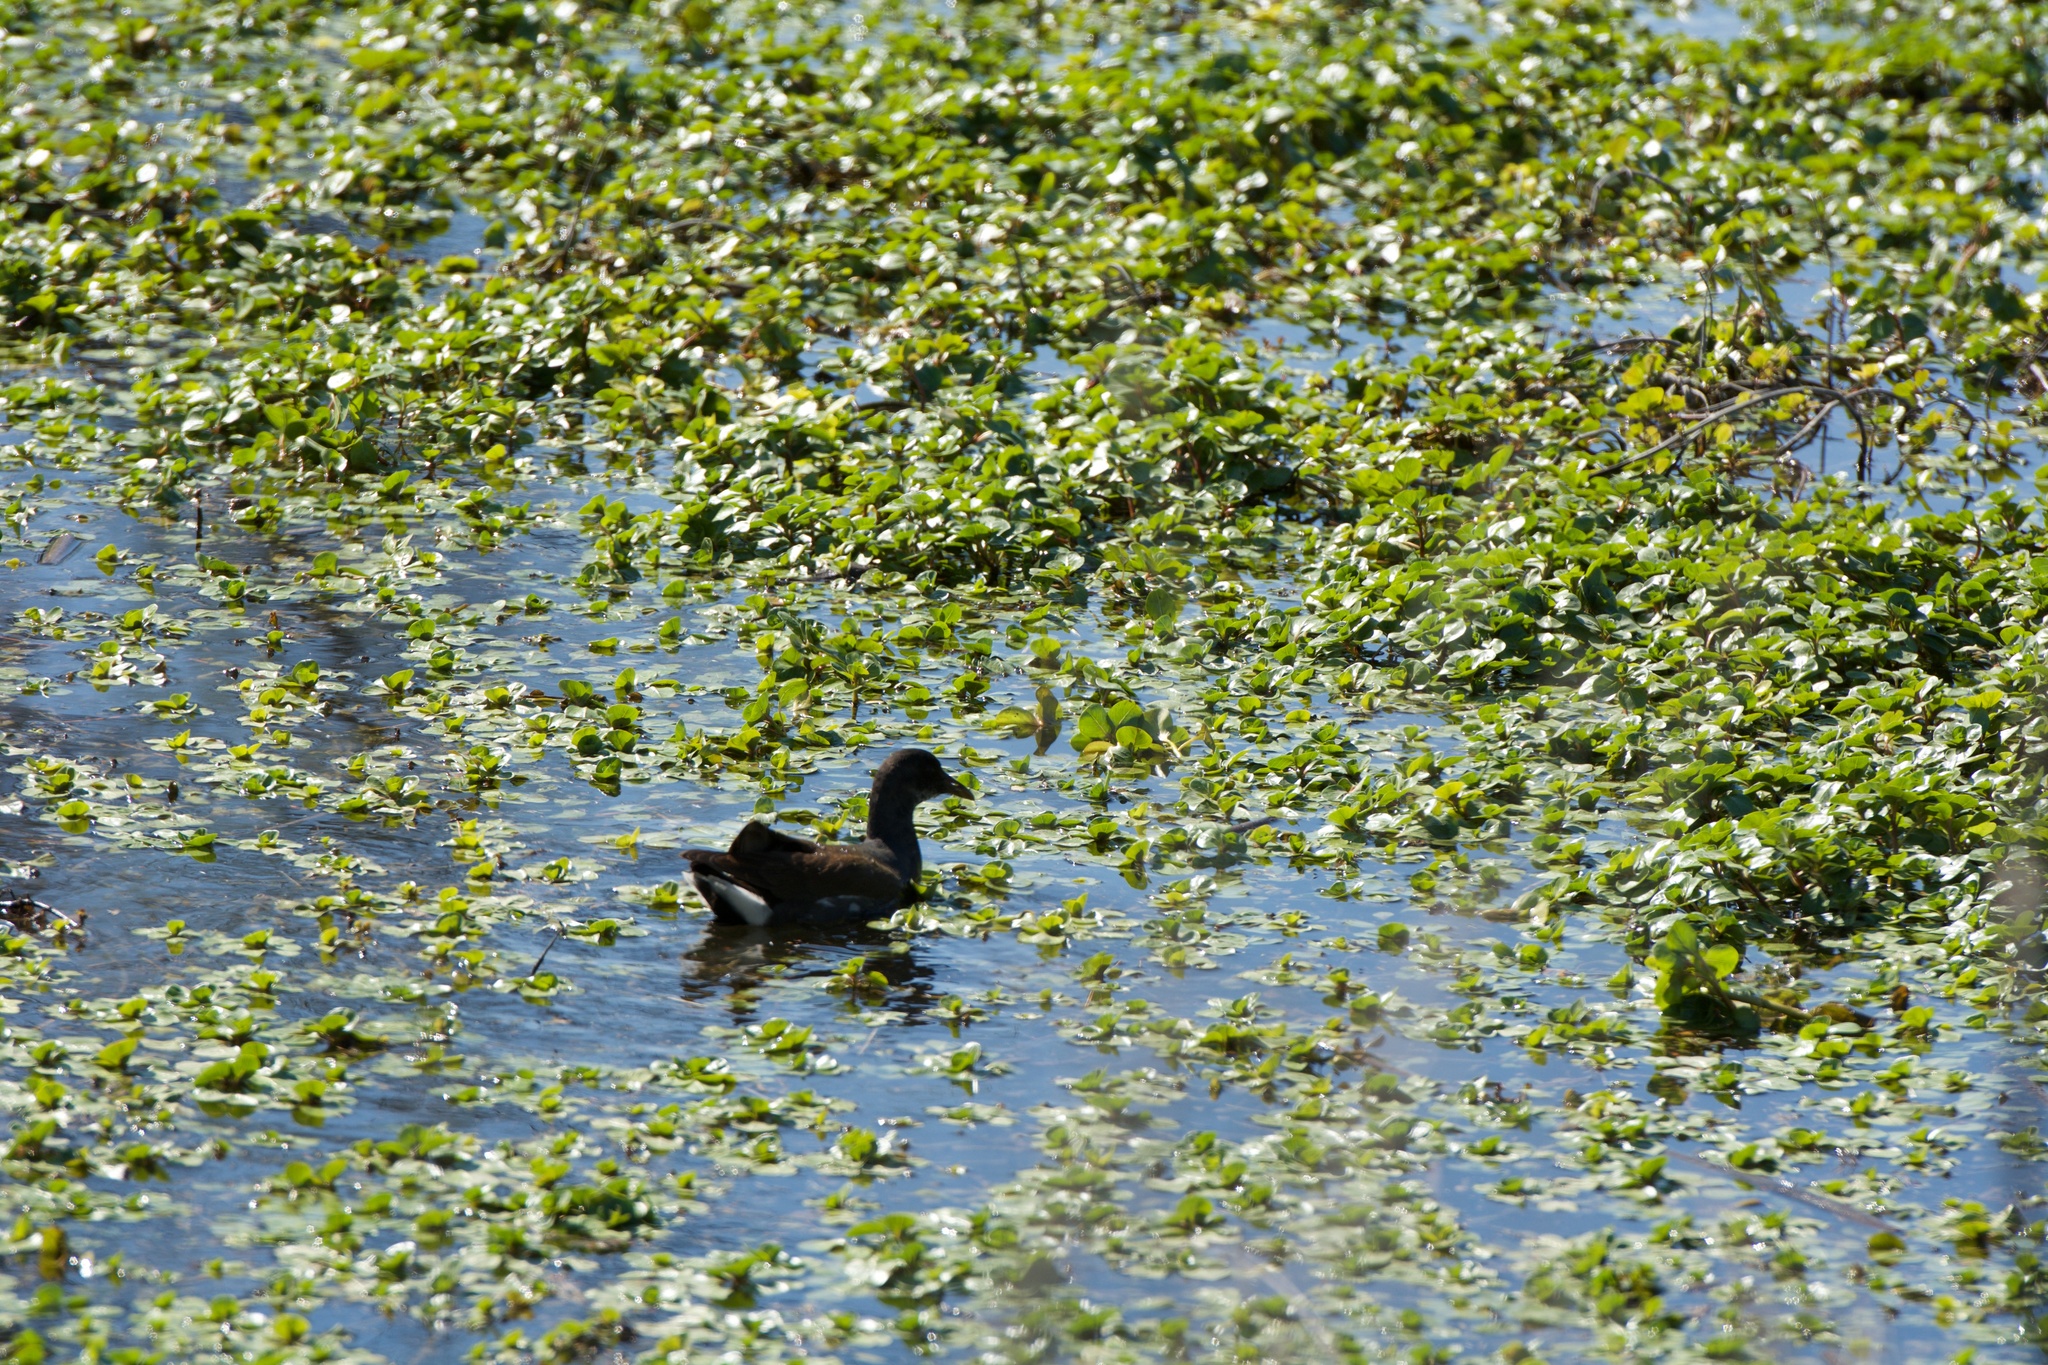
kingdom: Animalia
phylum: Chordata
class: Aves
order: Gruiformes
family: Rallidae
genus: Gallinula
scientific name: Gallinula chloropus
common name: Common moorhen
